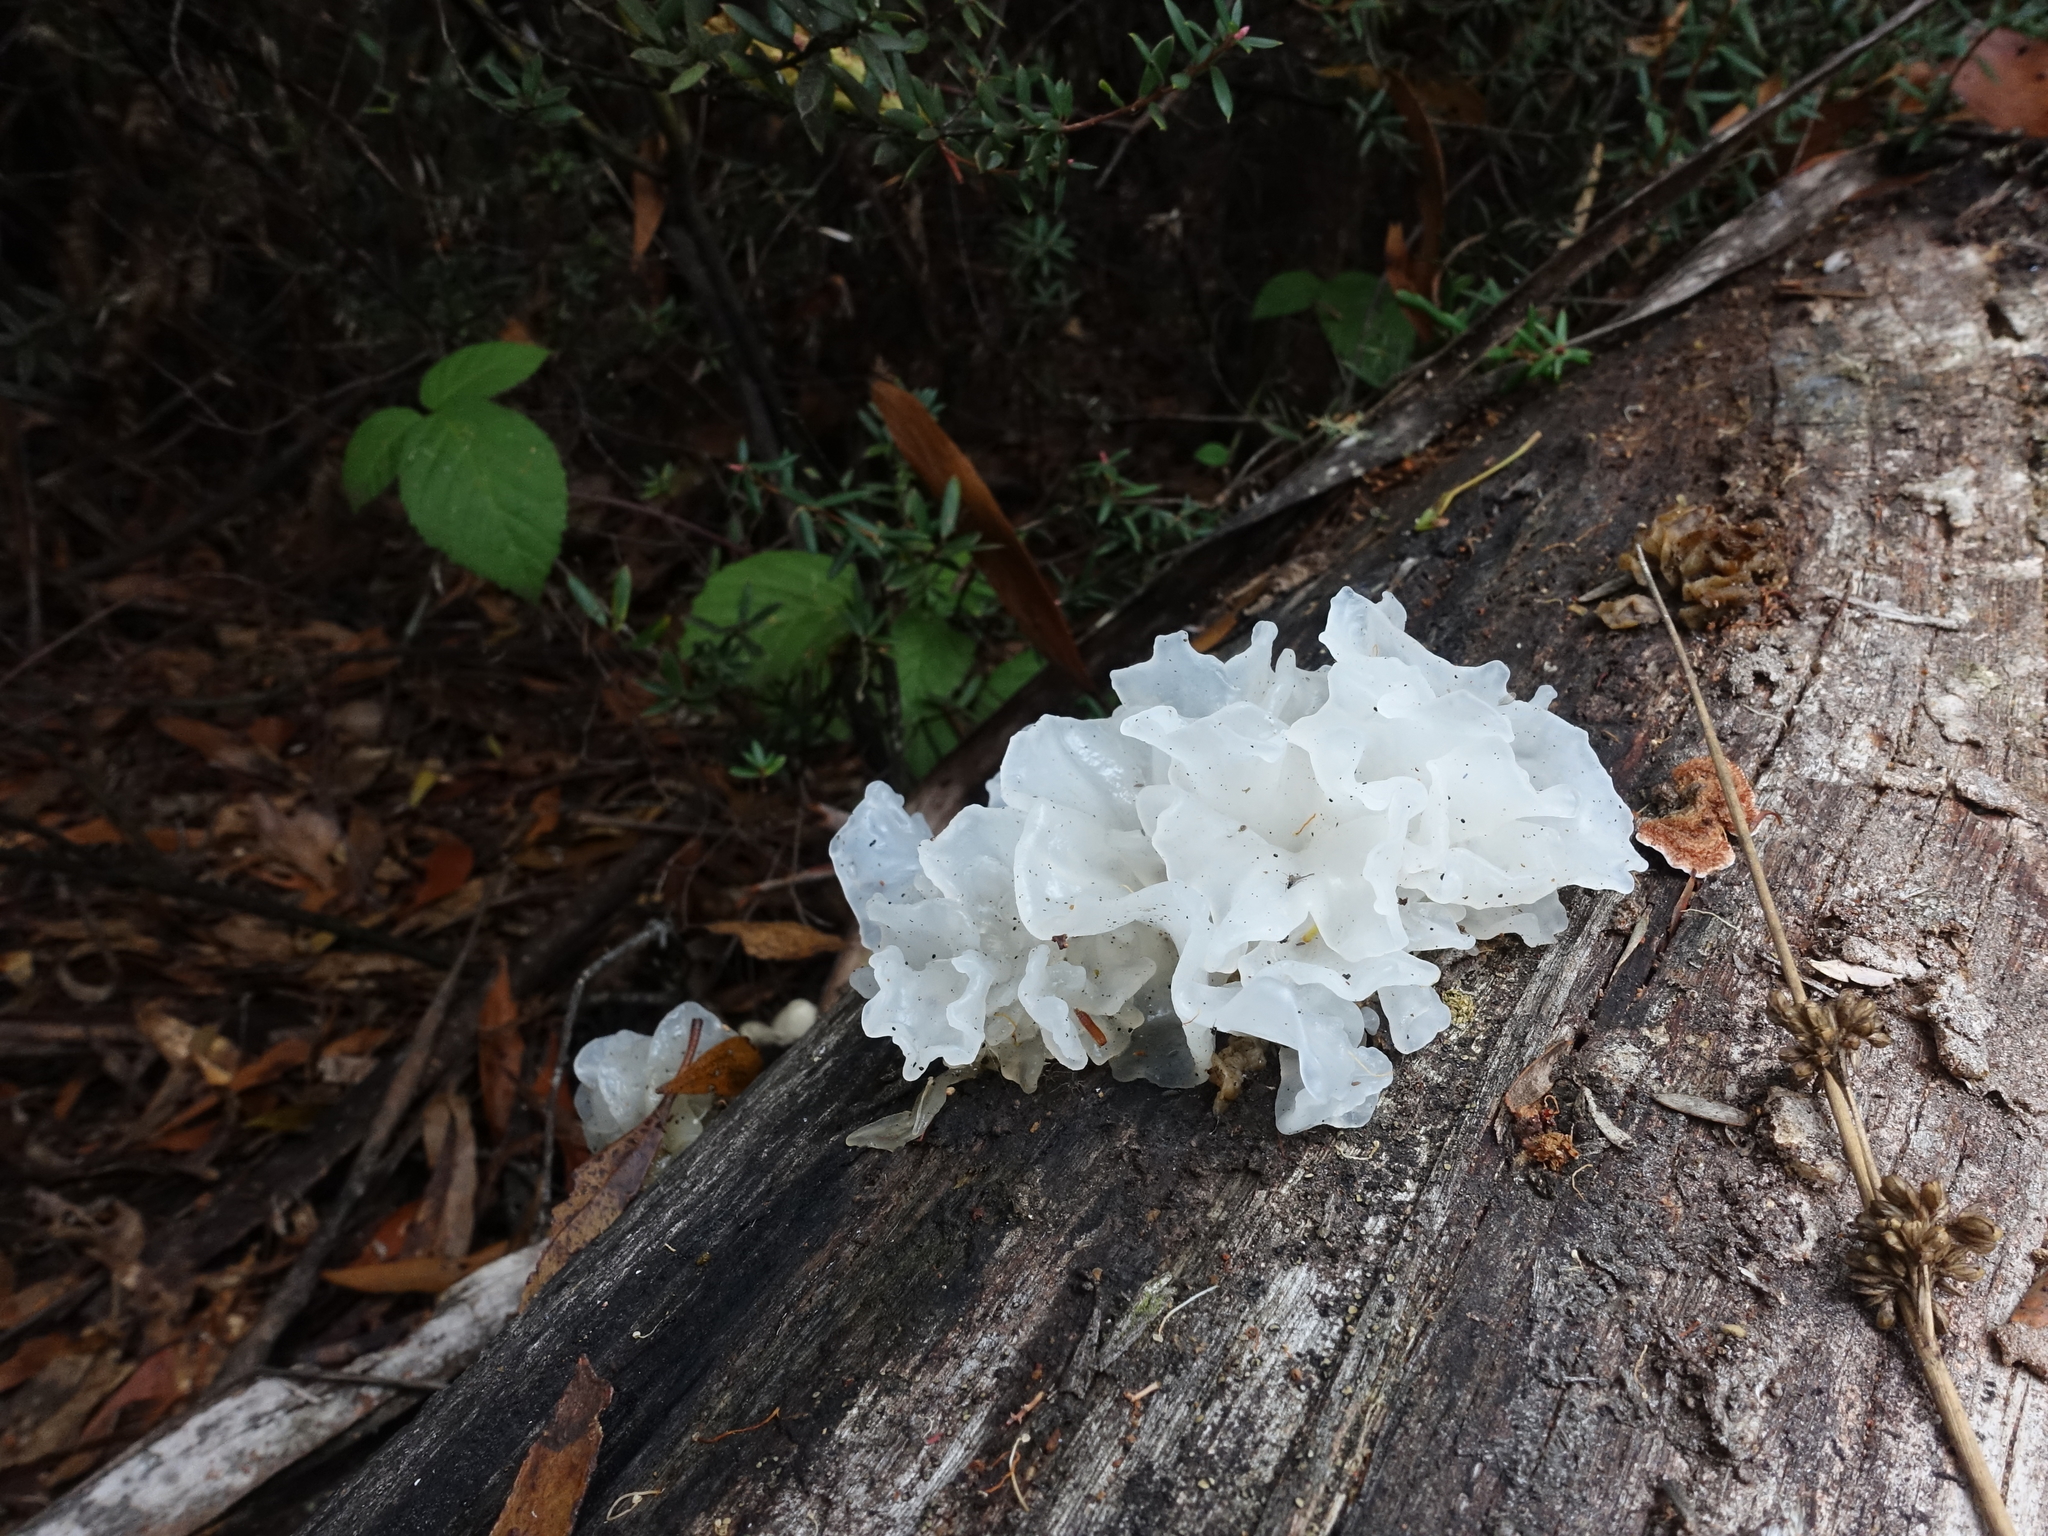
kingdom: Fungi
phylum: Basidiomycota
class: Tremellomycetes
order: Tremellales
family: Tremellaceae
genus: Tremella
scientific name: Tremella fuciformis
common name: Snow fungus
